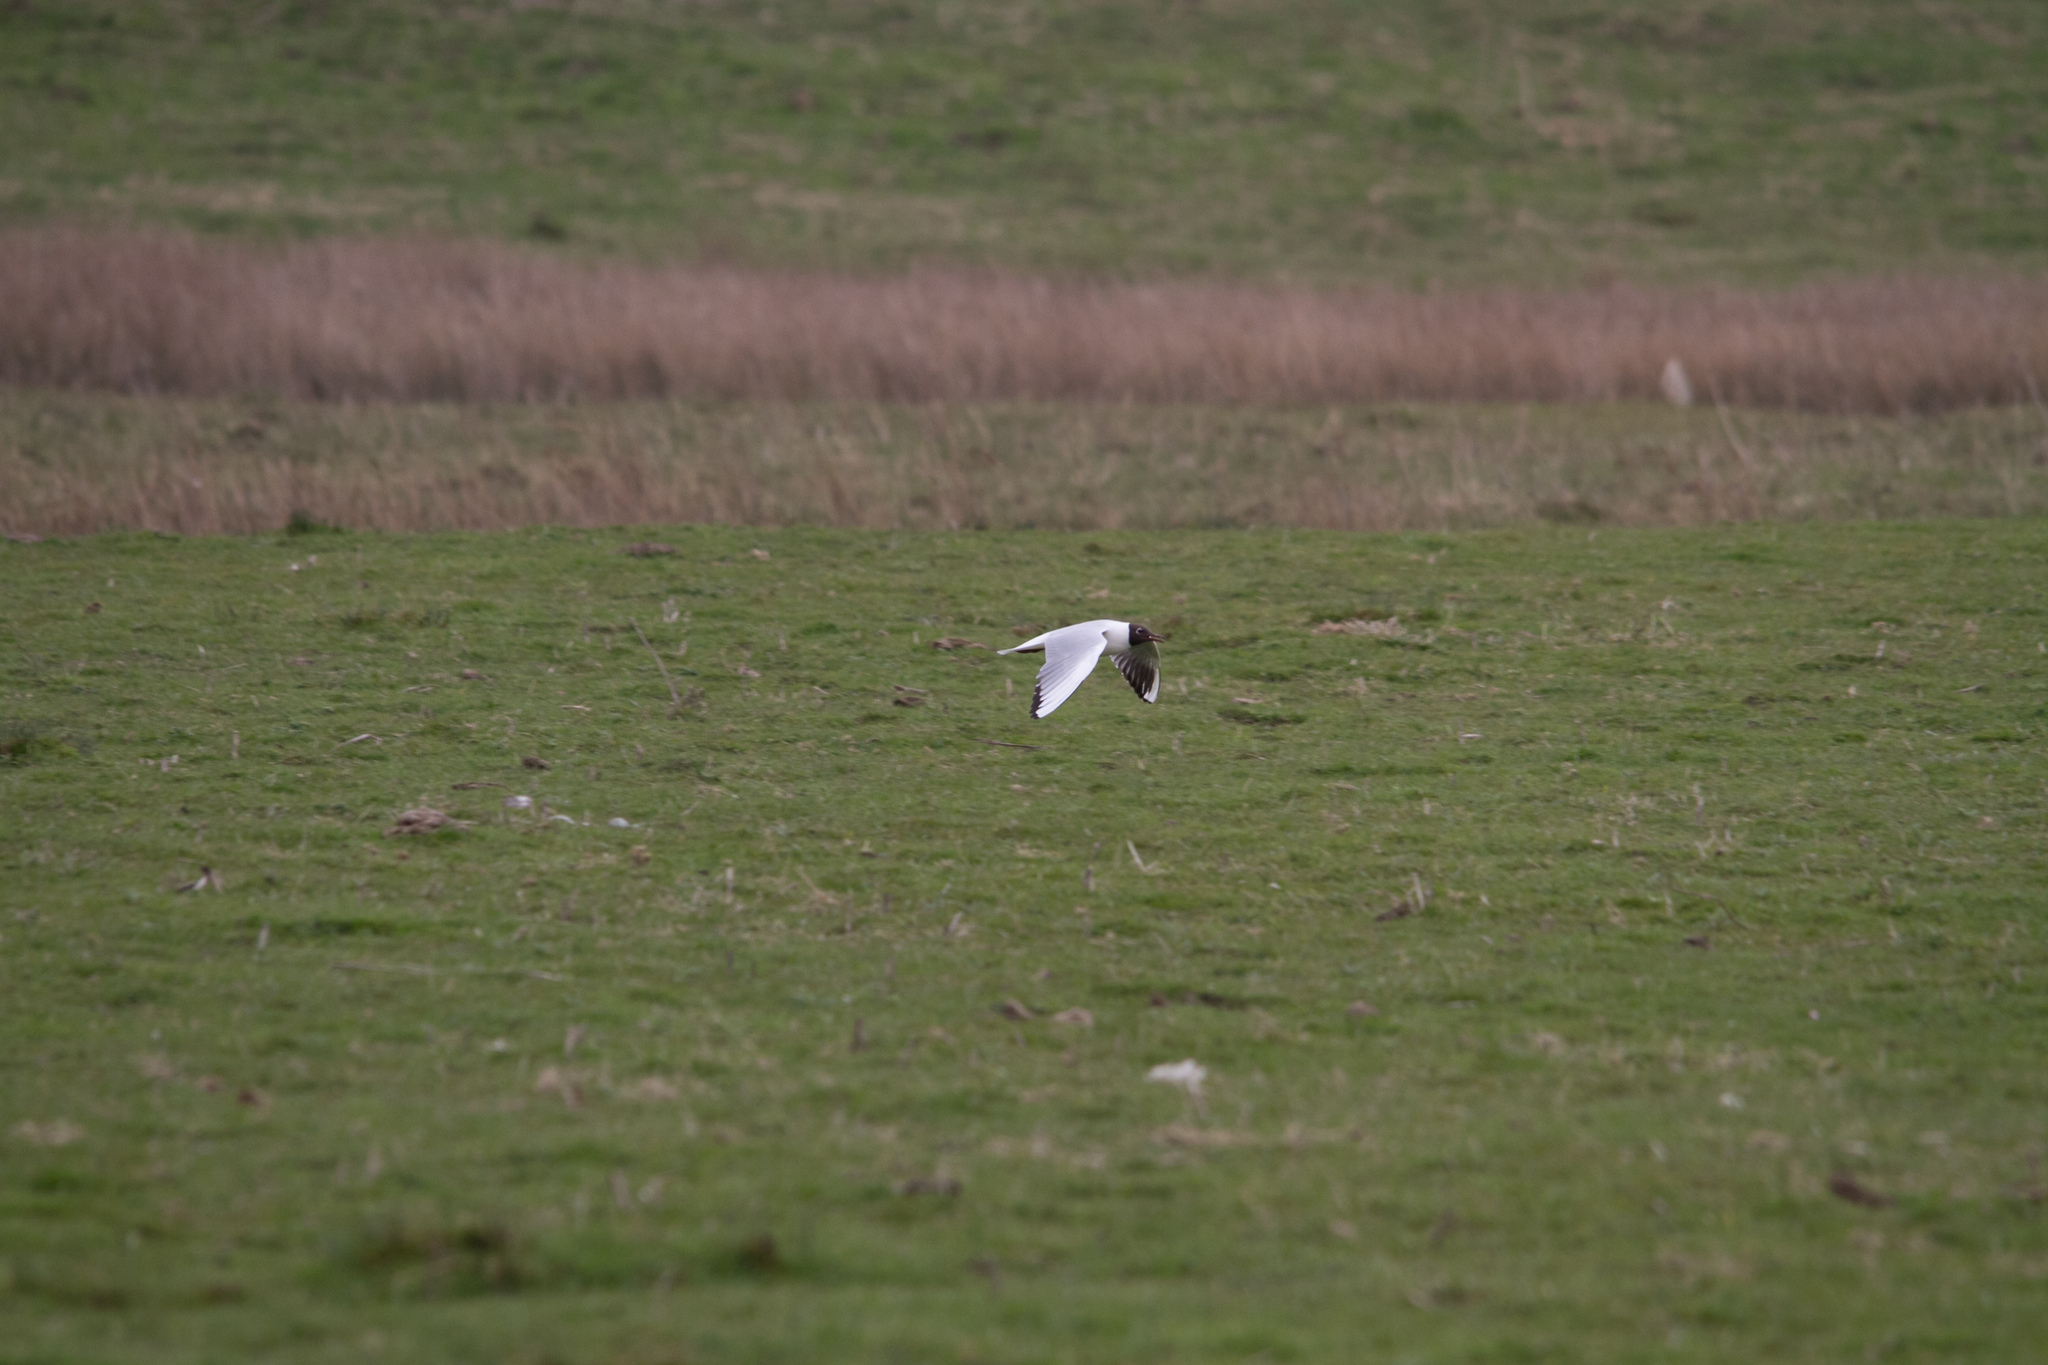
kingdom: Animalia
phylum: Chordata
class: Aves
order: Charadriiformes
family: Laridae
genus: Chroicocephalus
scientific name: Chroicocephalus ridibundus
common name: Black-headed gull
